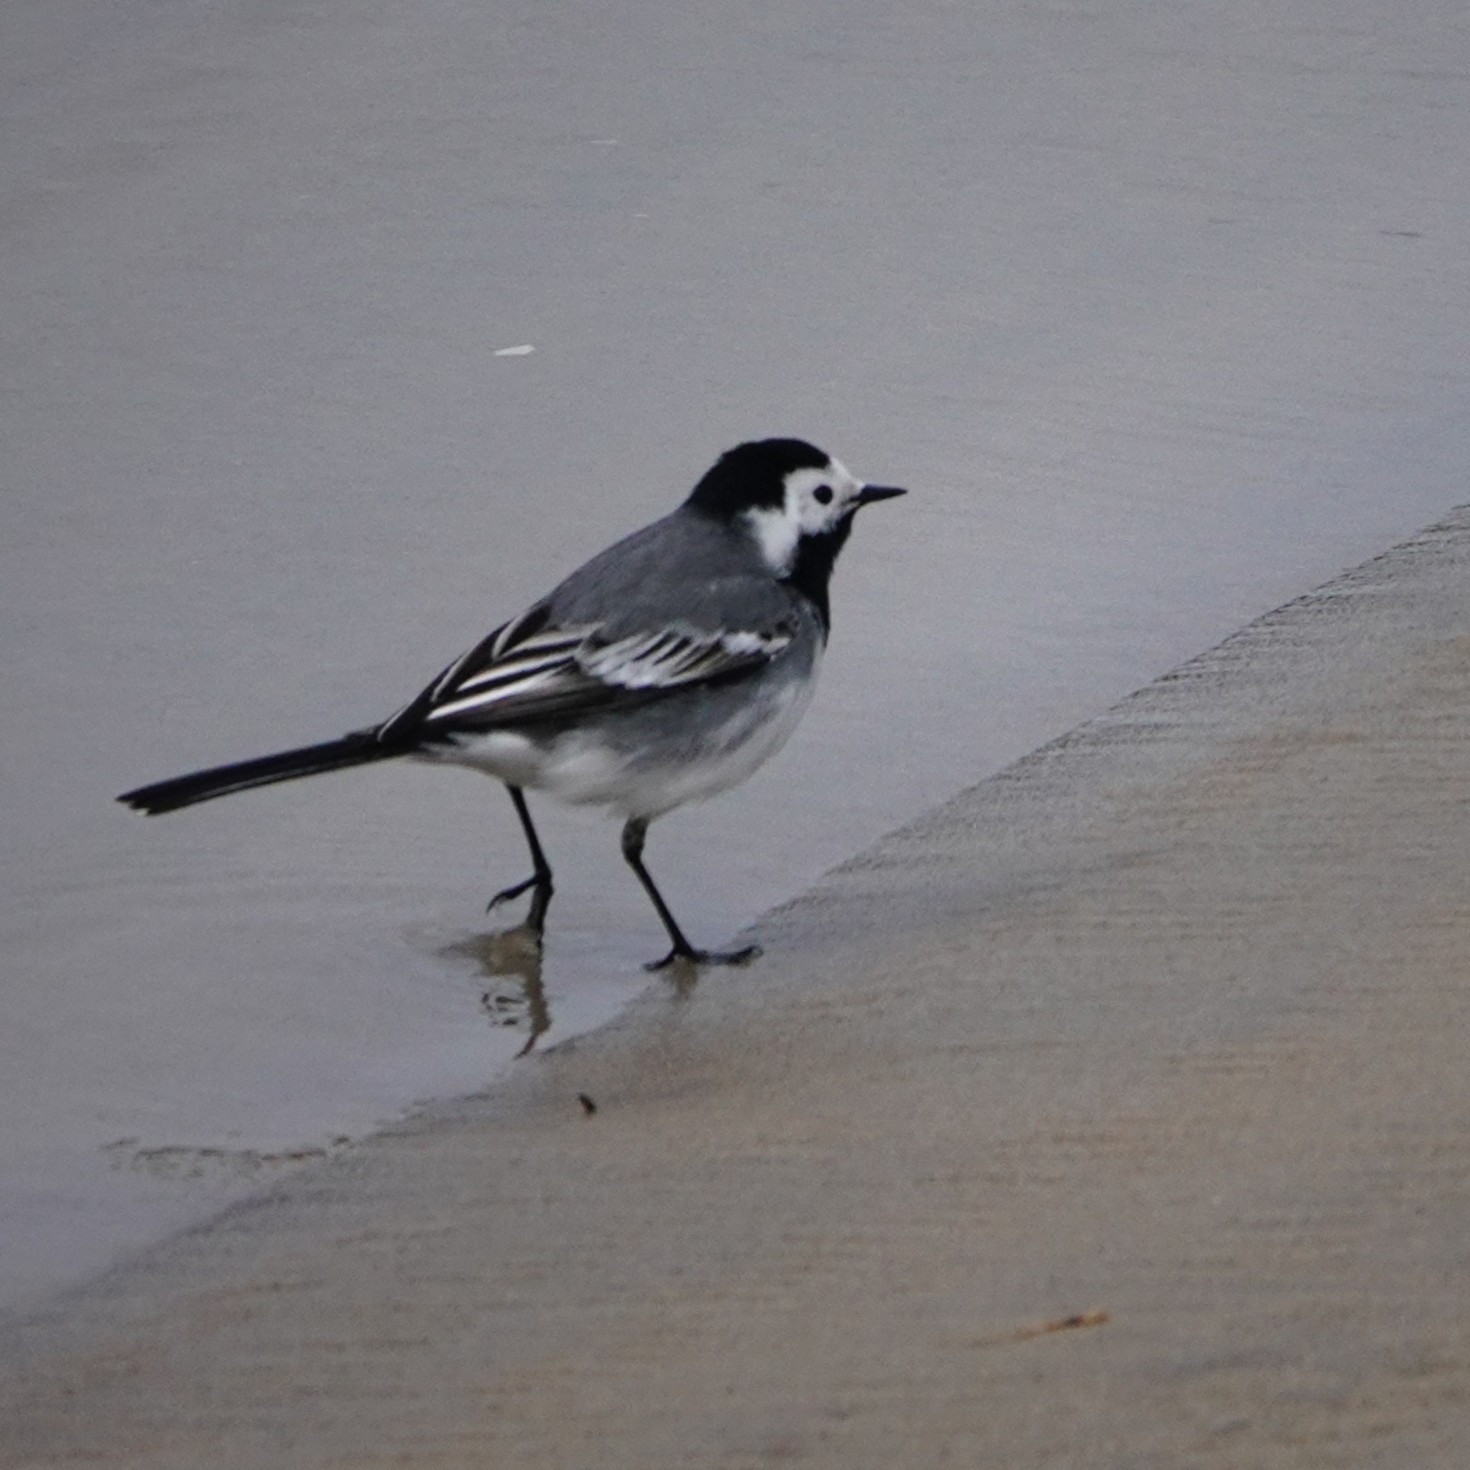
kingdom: Animalia
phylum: Chordata
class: Aves
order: Passeriformes
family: Motacillidae
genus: Motacilla
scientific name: Motacilla alba
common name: White wagtail
